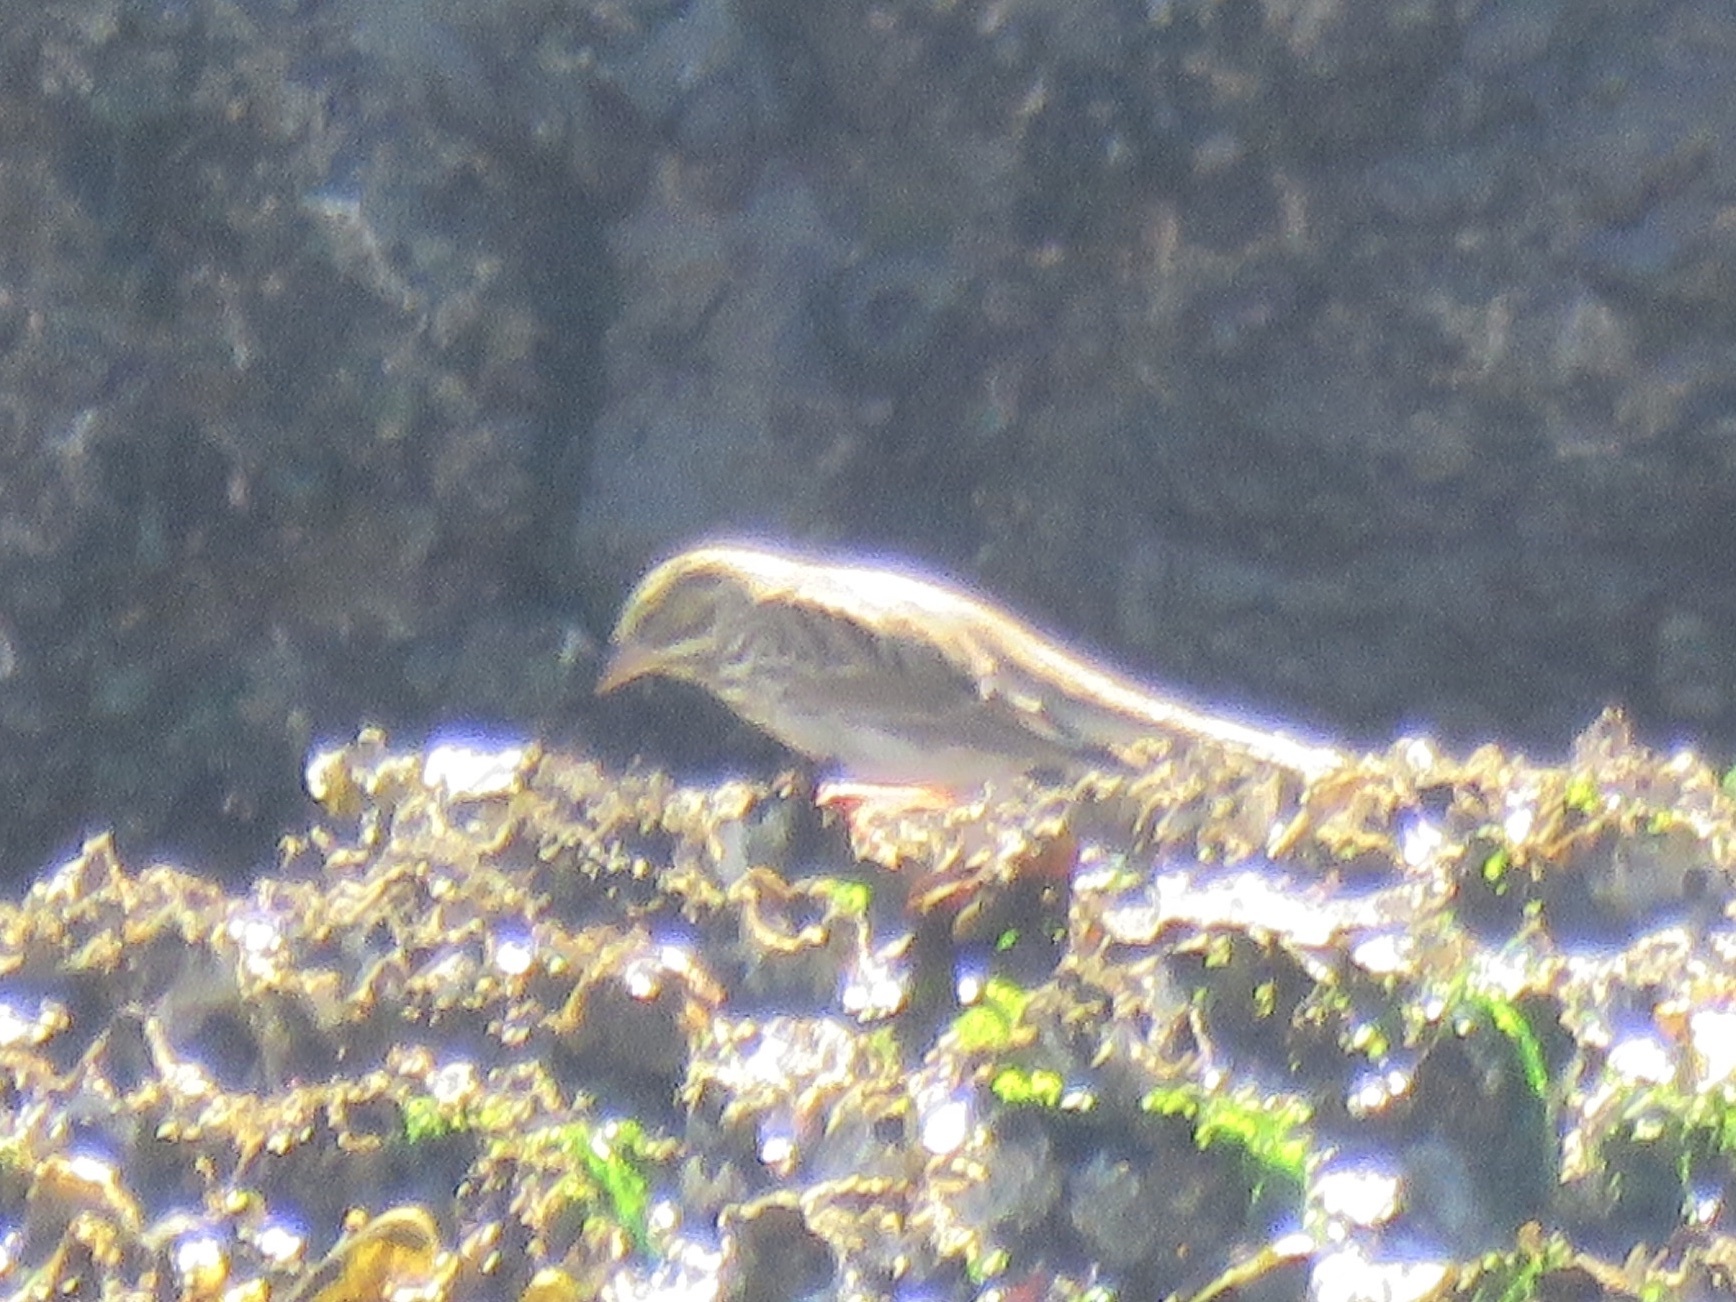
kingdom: Animalia
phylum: Chordata
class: Aves
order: Passeriformes
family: Passerellidae
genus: Passerculus
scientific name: Passerculus sandwichensis
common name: Savannah sparrow
